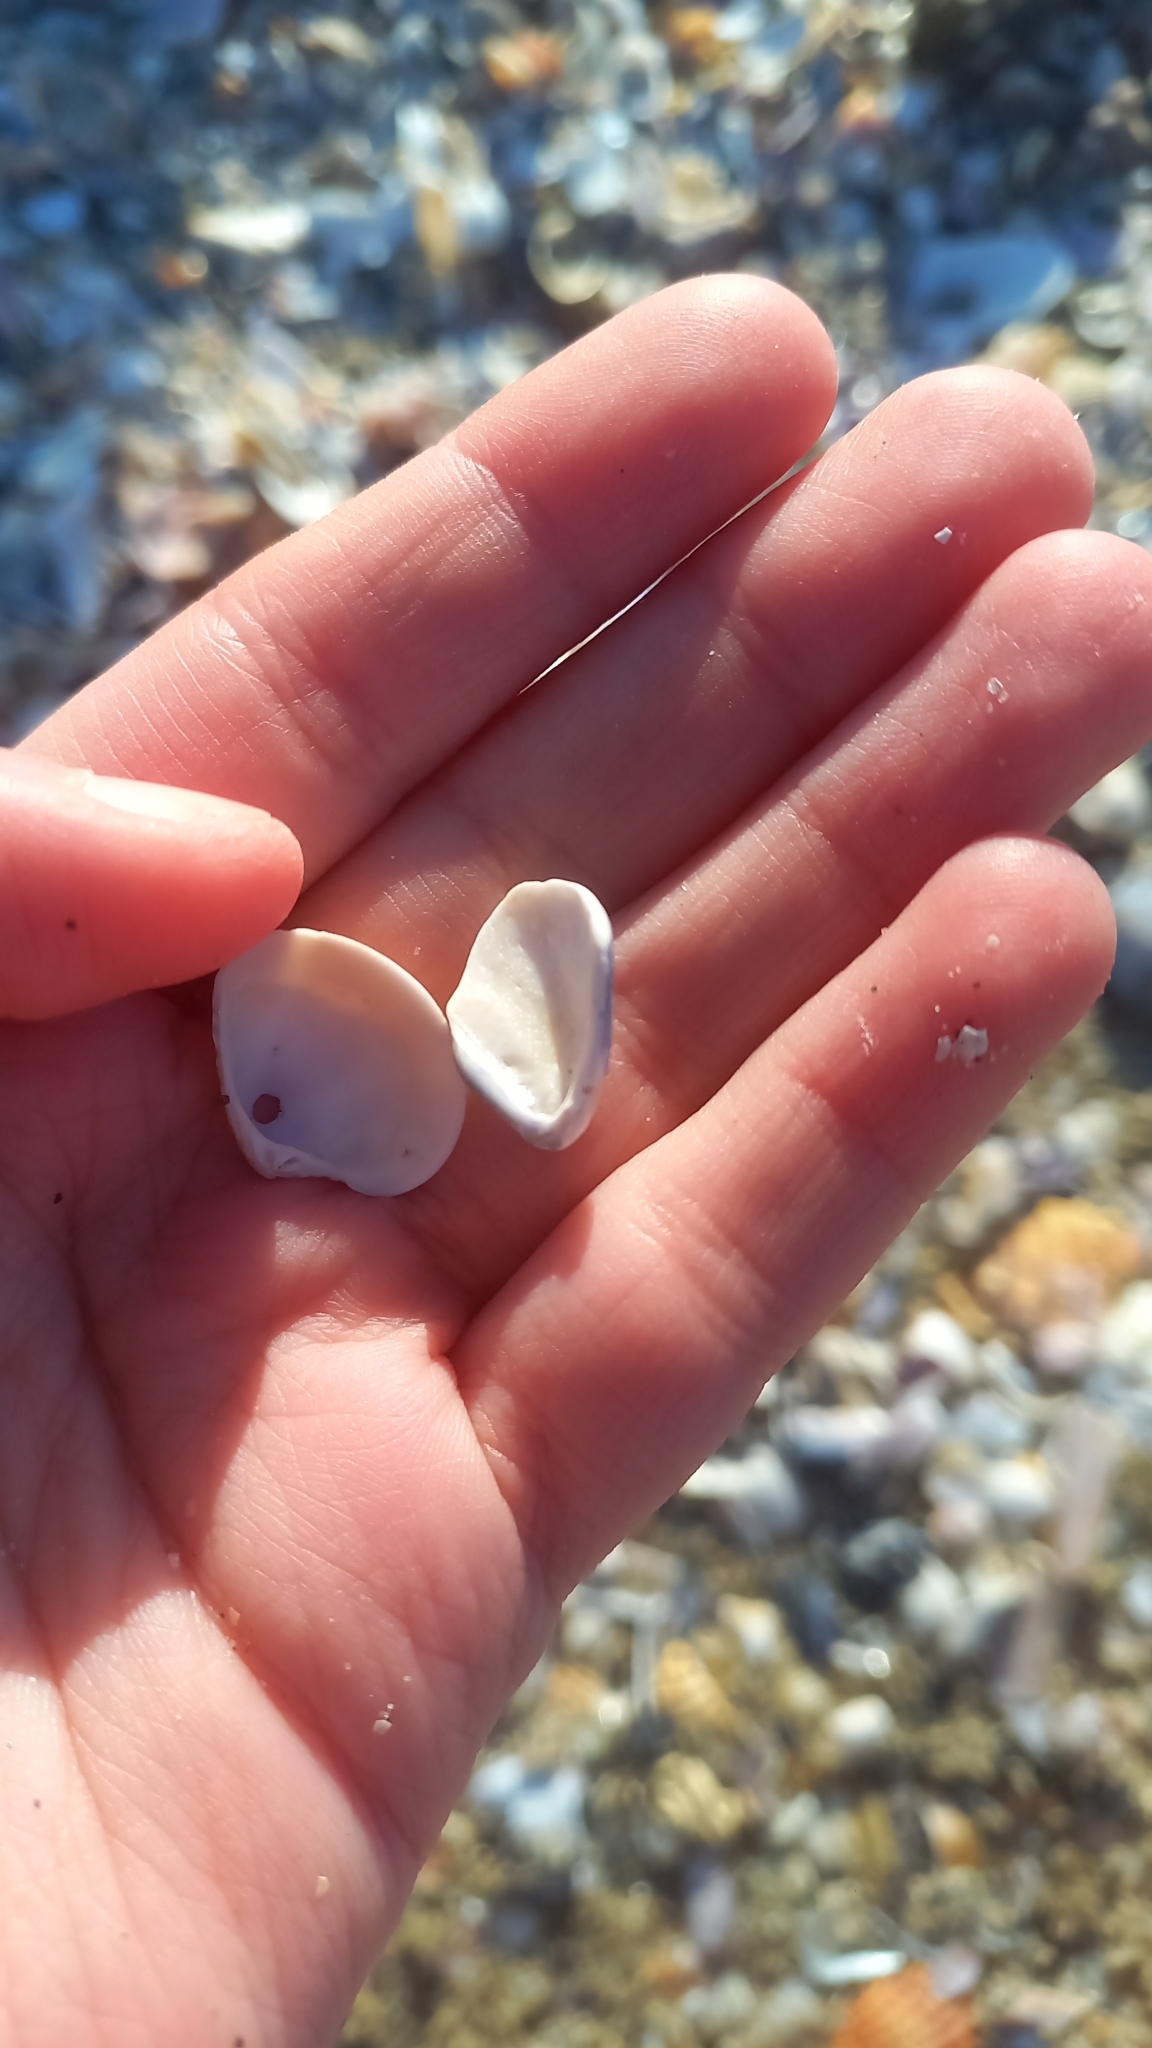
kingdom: Animalia
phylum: Mollusca
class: Bivalvia
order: Venerida
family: Veneridae
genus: Chamelea
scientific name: Chamelea gallina
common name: Chicken venus
